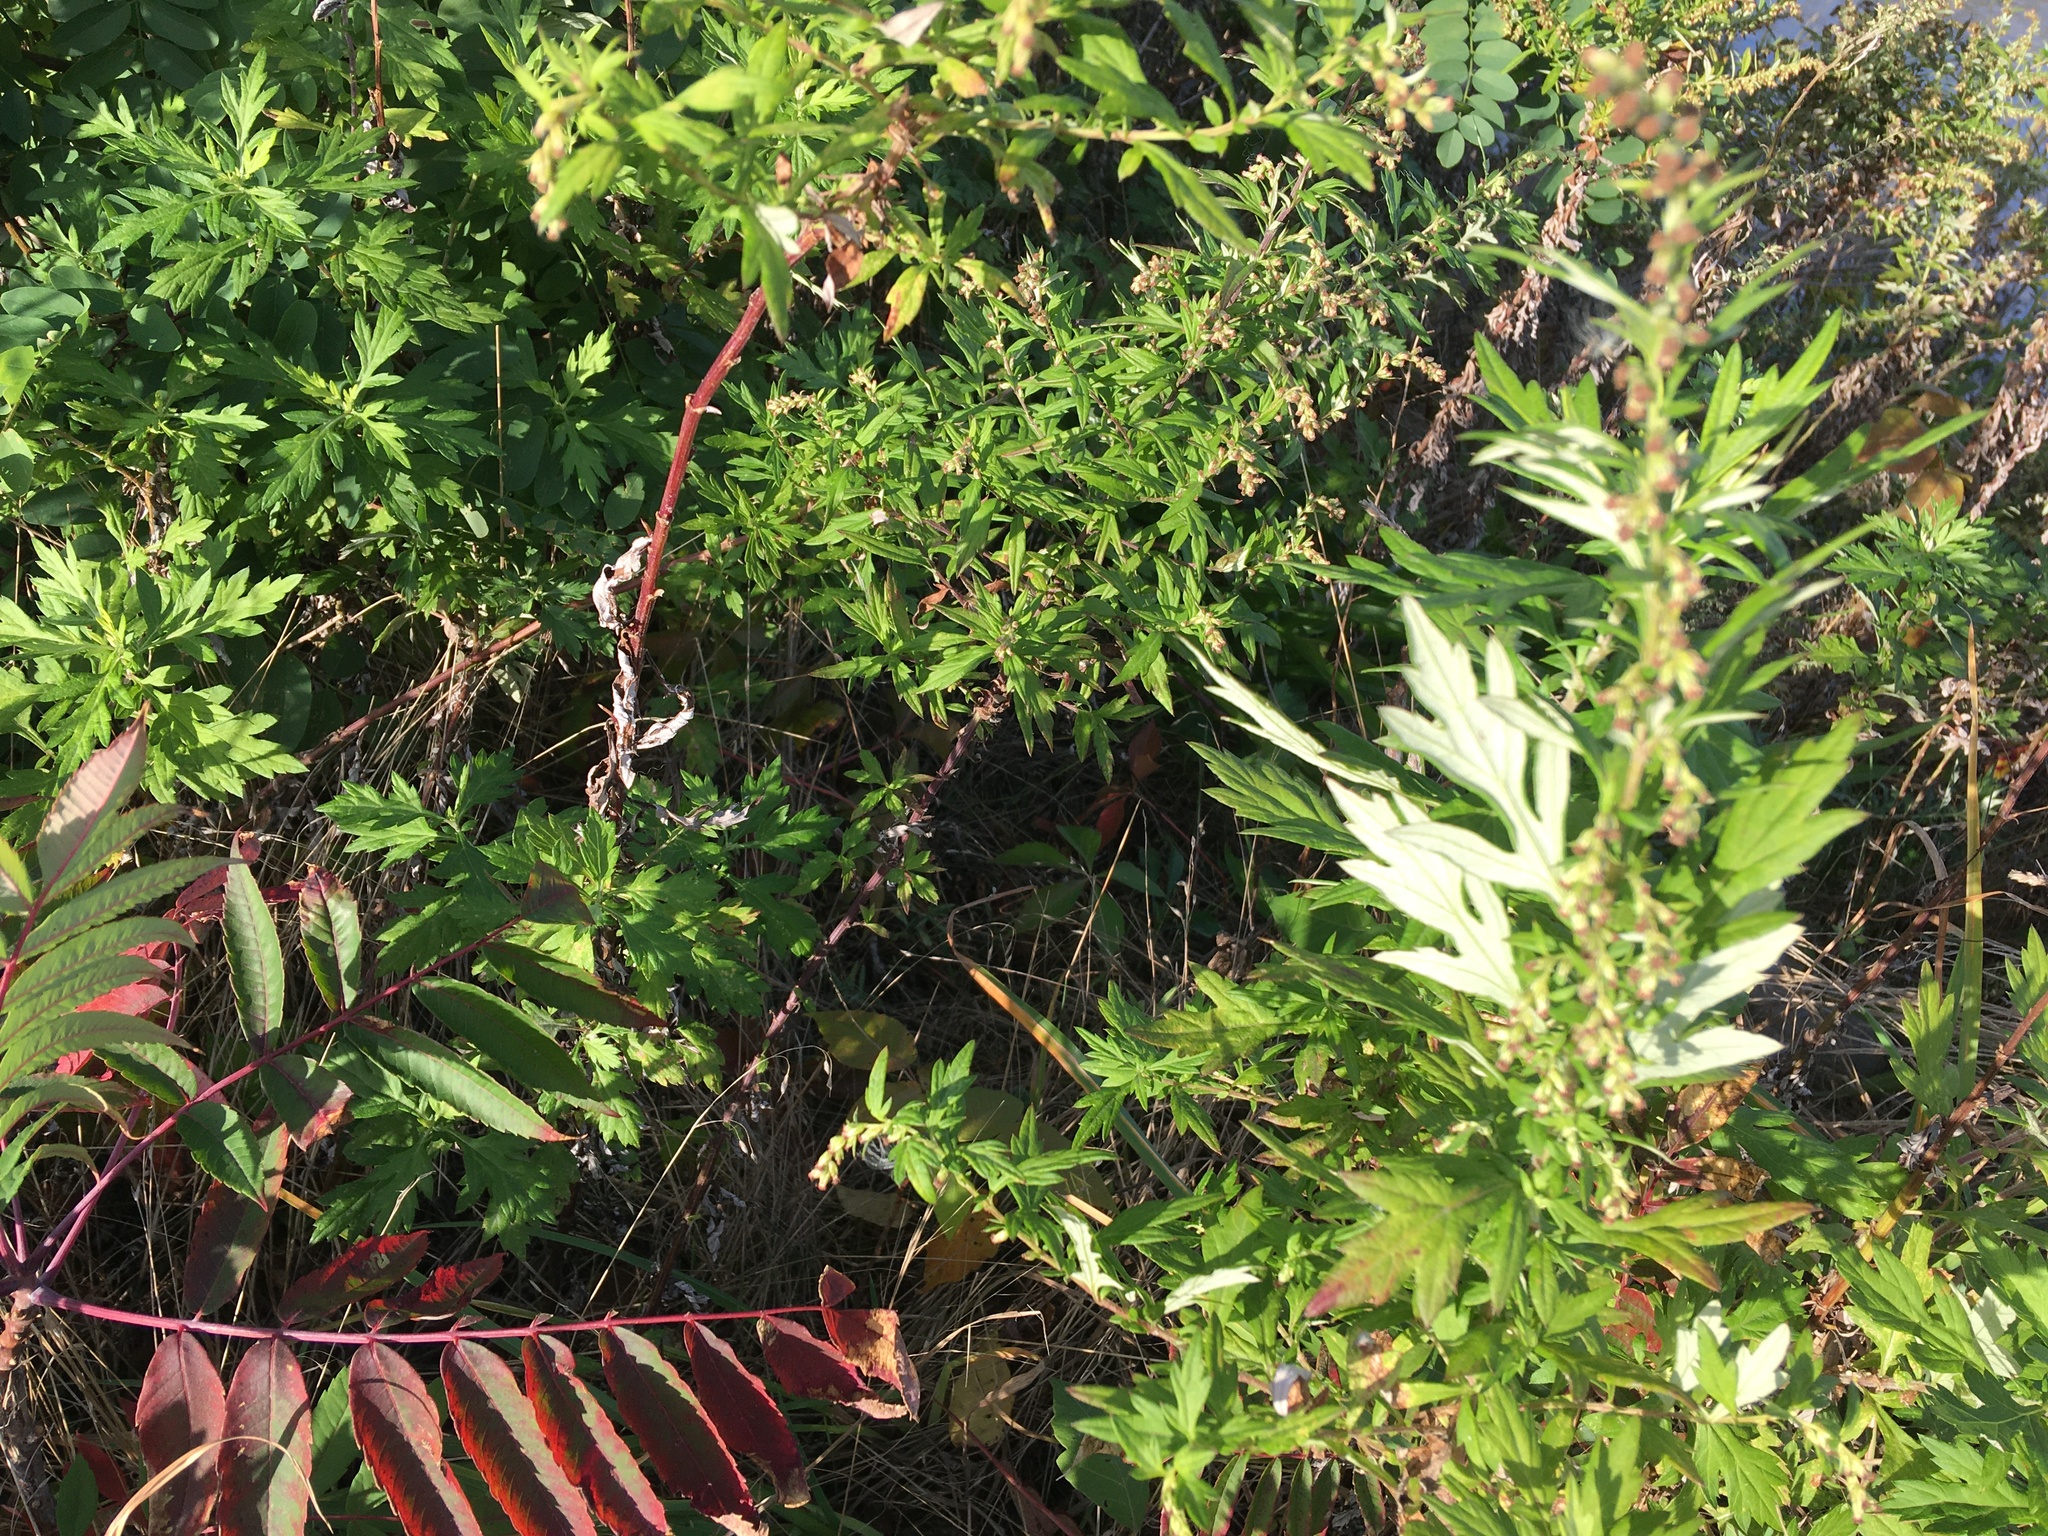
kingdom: Plantae
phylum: Tracheophyta
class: Magnoliopsida
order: Asterales
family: Asteraceae
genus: Artemisia
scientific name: Artemisia vulgaris
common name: Mugwort
